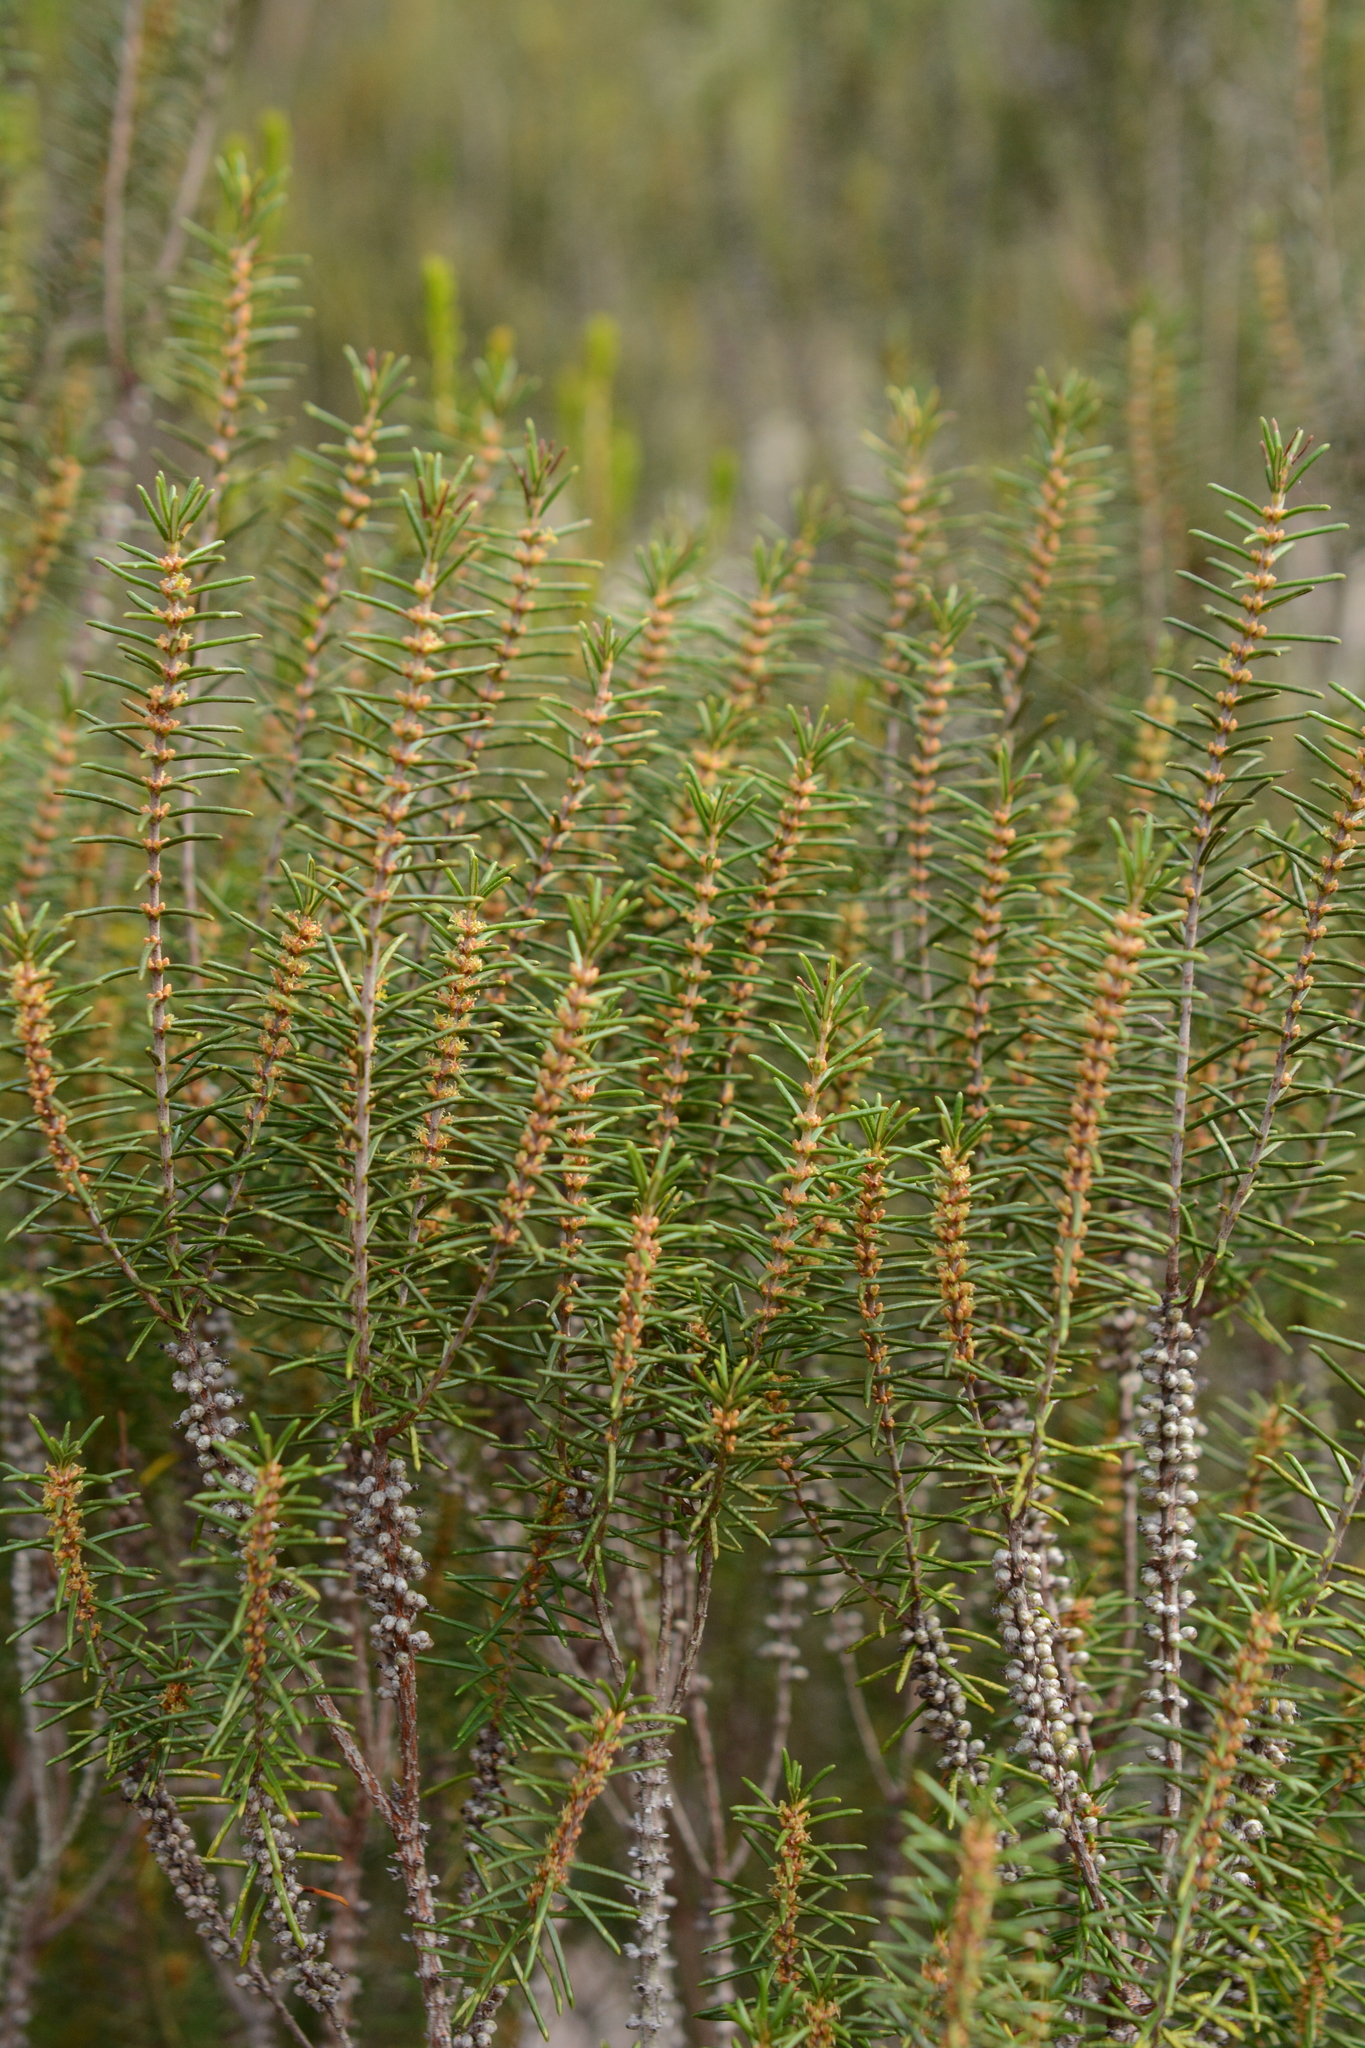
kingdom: Plantae
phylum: Tracheophyta
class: Magnoliopsida
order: Ericales
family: Ericaceae
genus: Ceratiola
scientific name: Ceratiola ericoides
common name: Sandhill-rosemary
